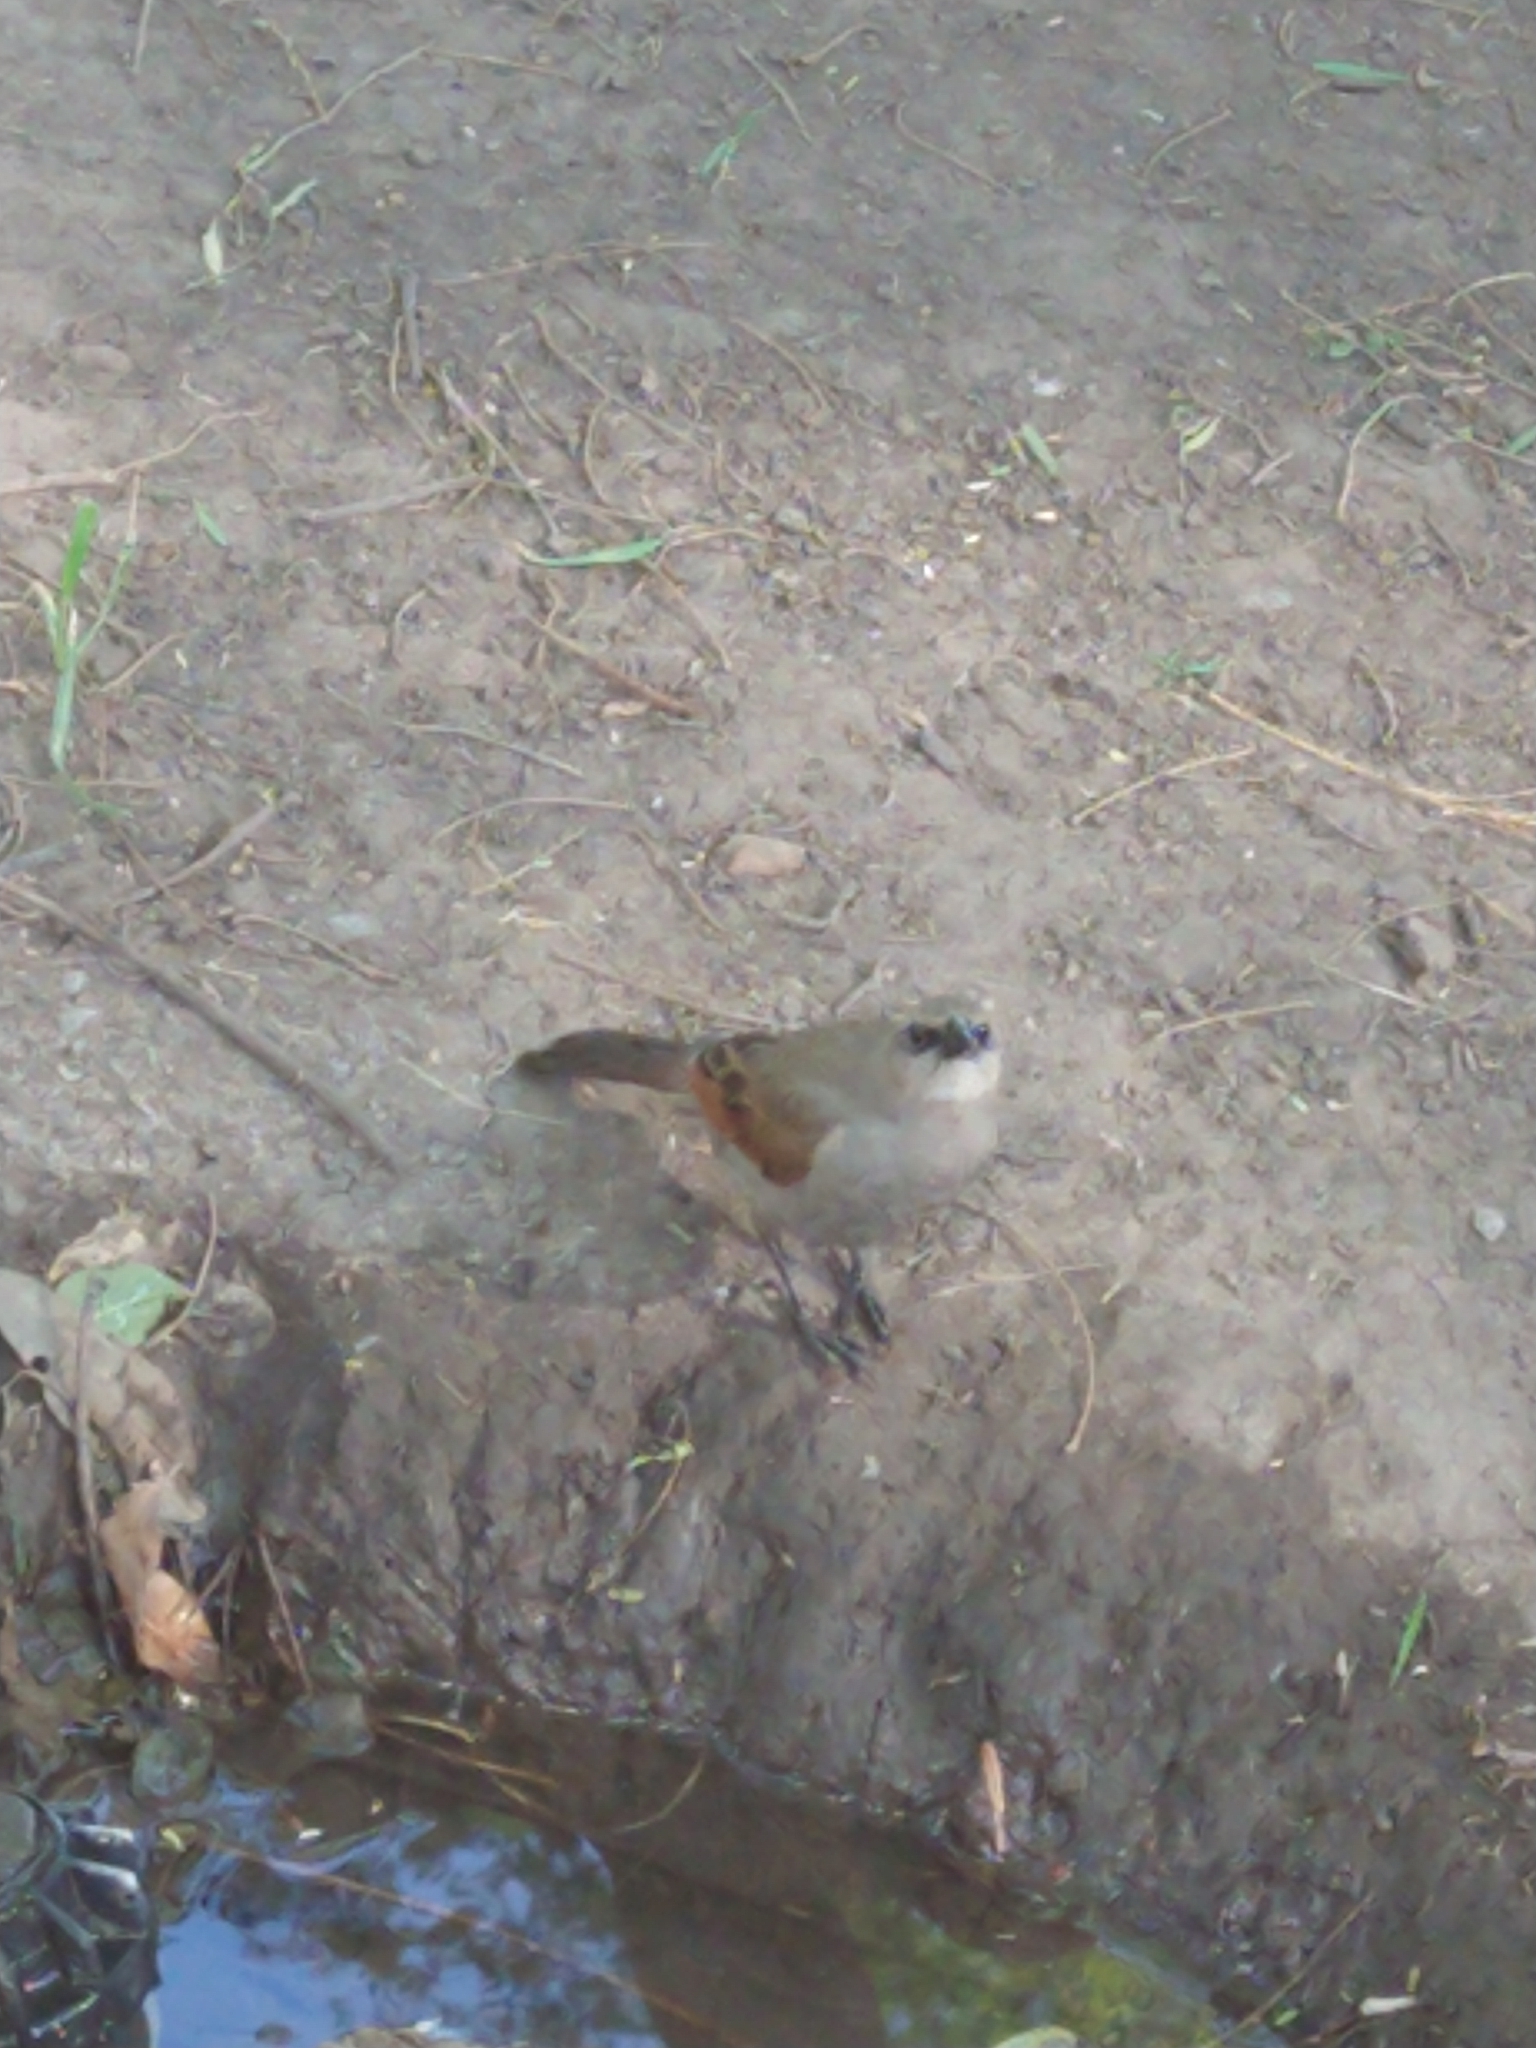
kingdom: Animalia
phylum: Chordata
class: Aves
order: Passeriformes
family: Icteridae
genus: Agelaioides
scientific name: Agelaioides badius
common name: Baywing
